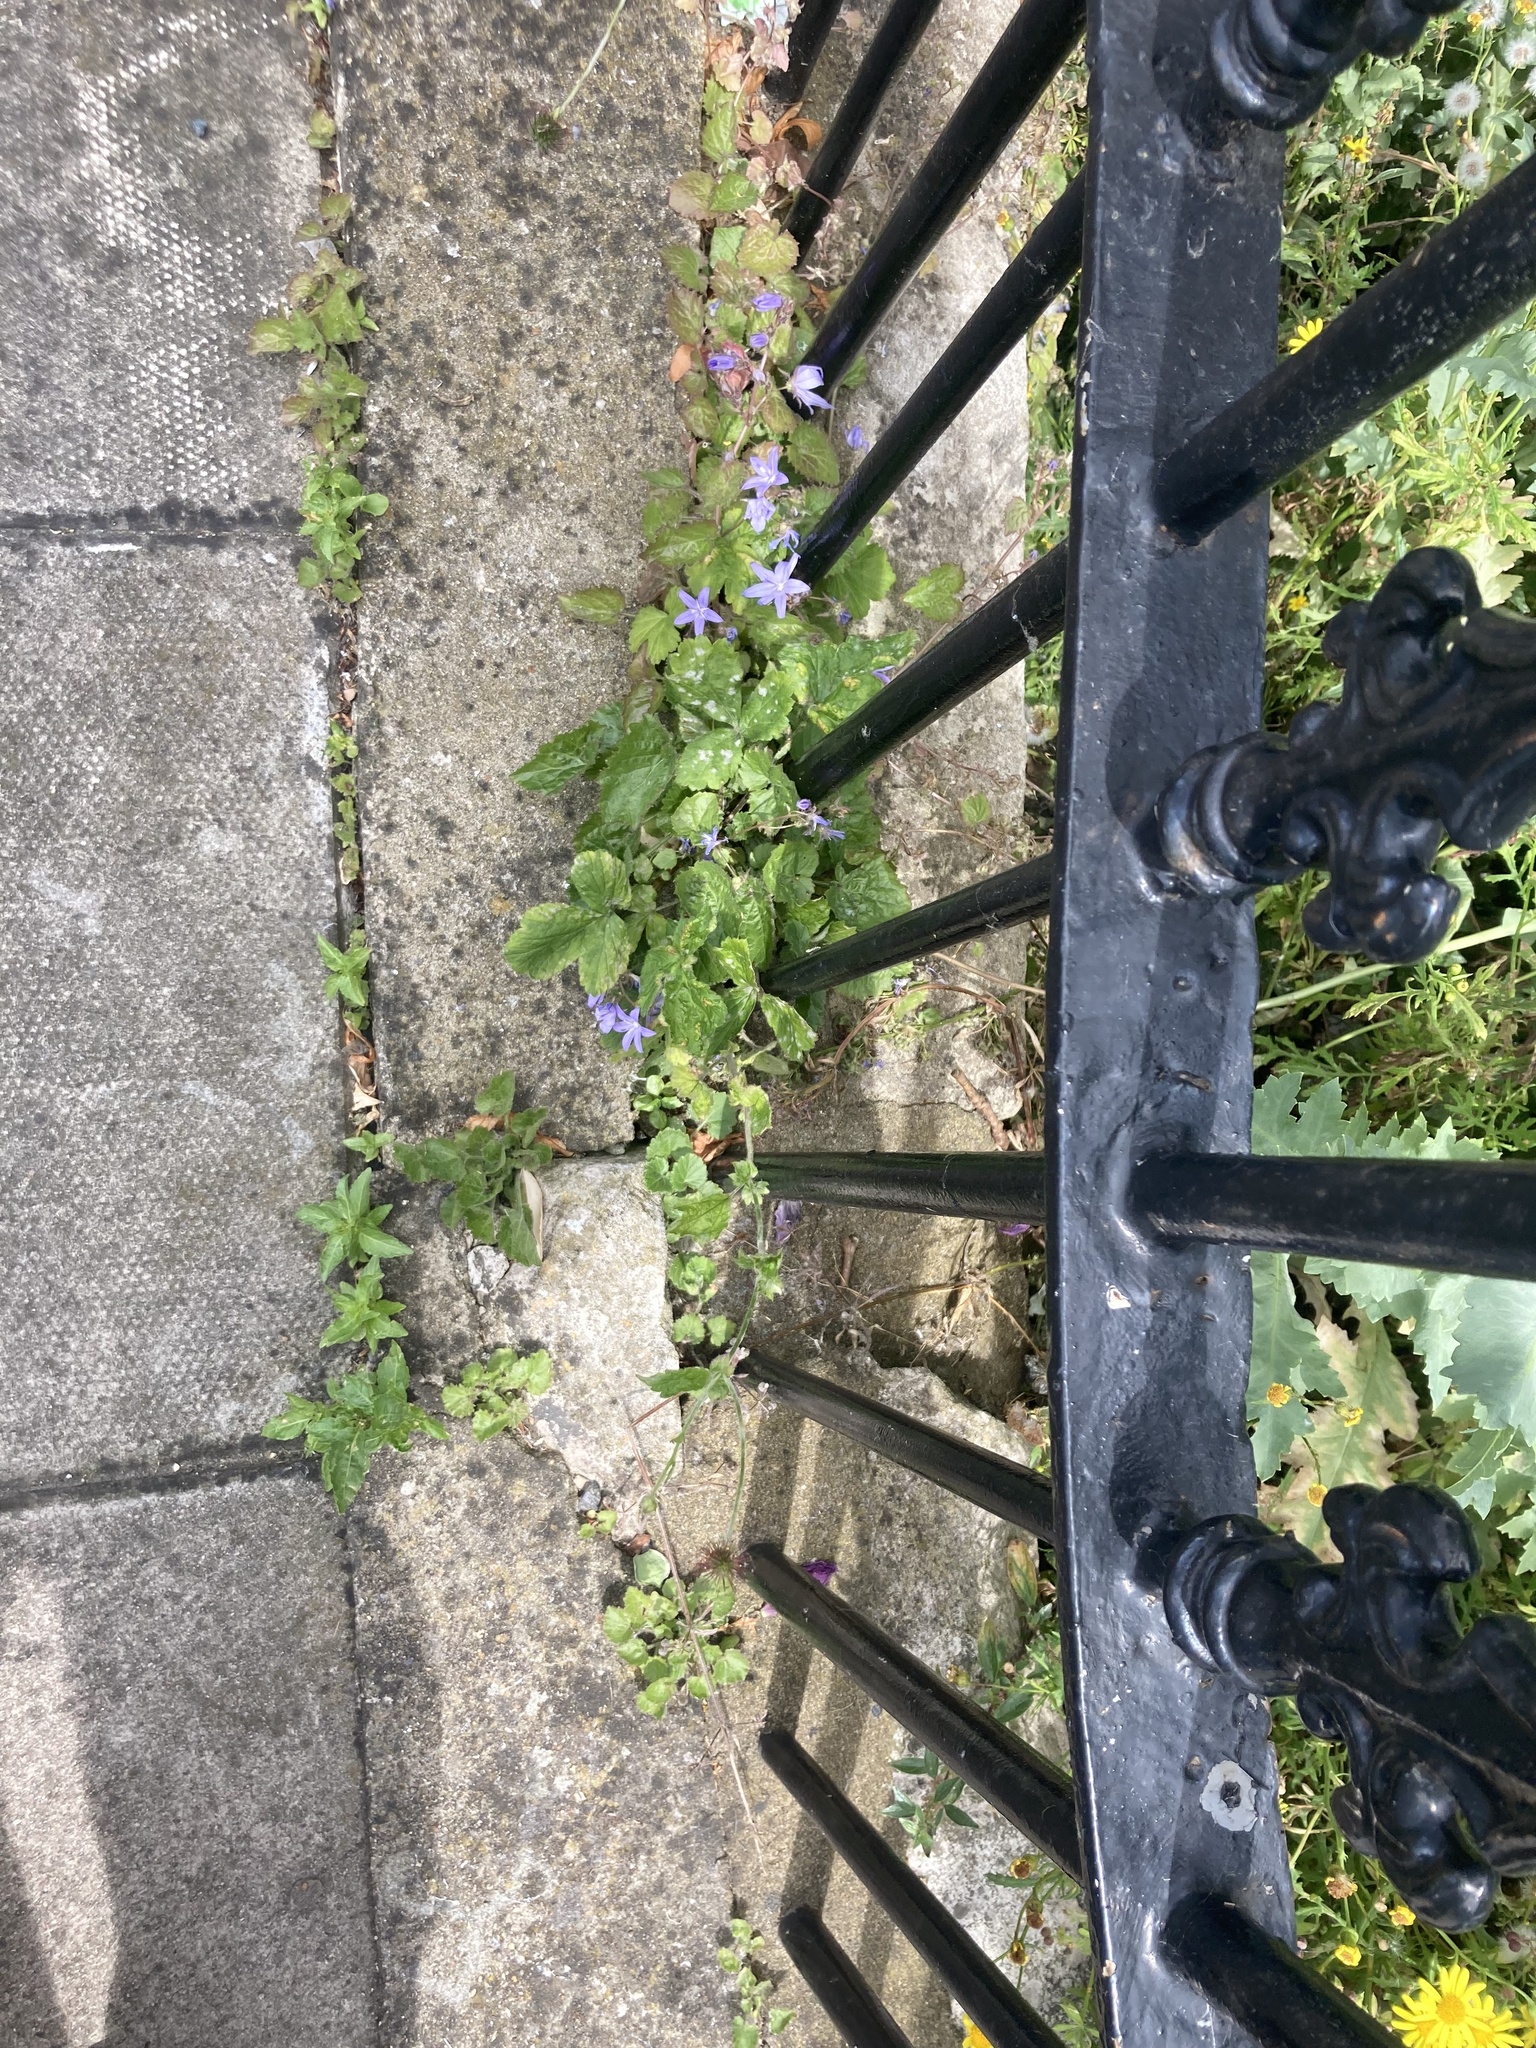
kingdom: Plantae
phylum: Tracheophyta
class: Magnoliopsida
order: Asterales
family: Campanulaceae
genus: Campanula
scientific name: Campanula poscharskyana
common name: Trailing bellflower
